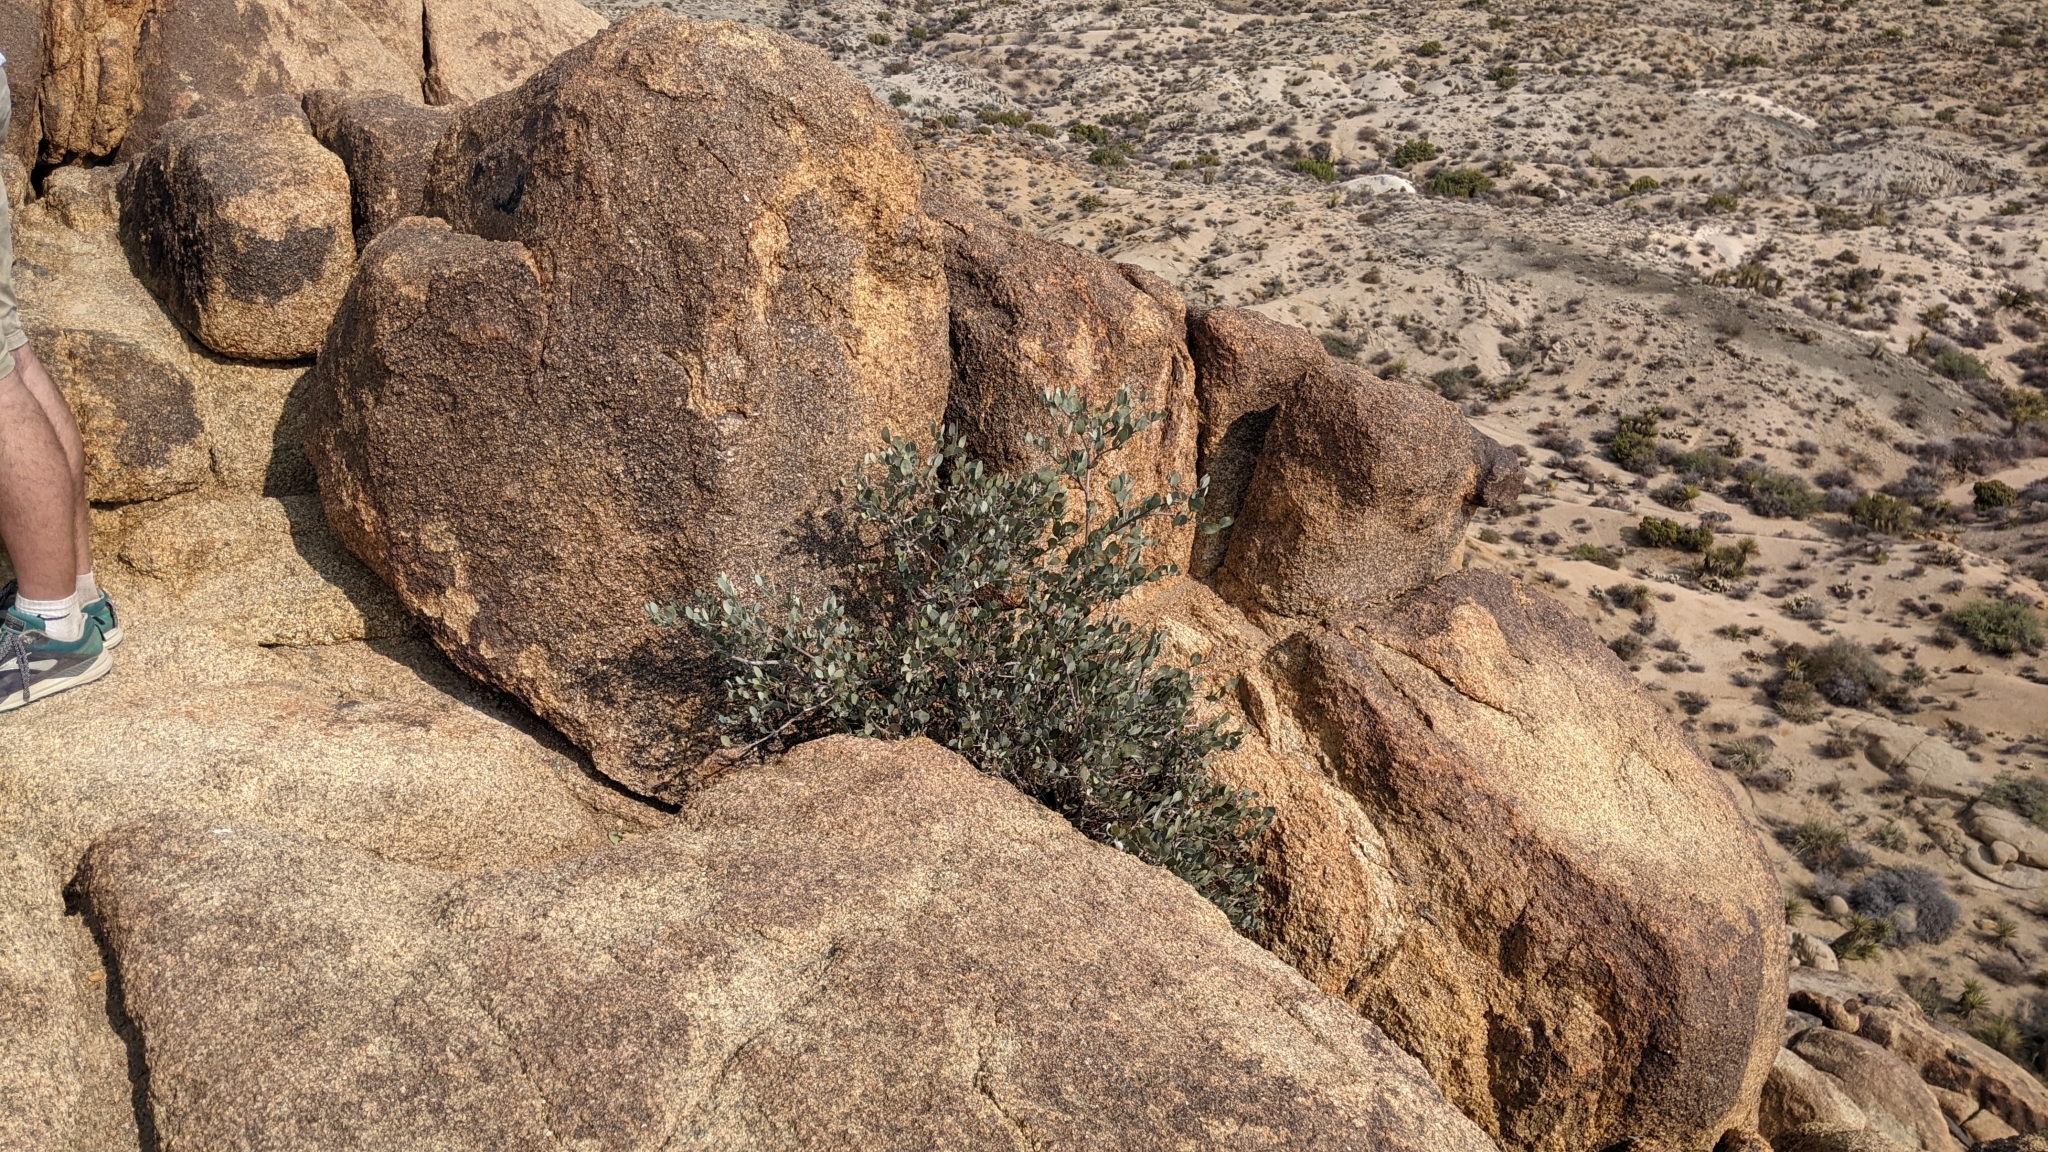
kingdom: Plantae
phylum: Tracheophyta
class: Magnoliopsida
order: Caryophyllales
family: Simmondsiaceae
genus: Simmondsia
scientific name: Simmondsia chinensis
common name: Jojoba
